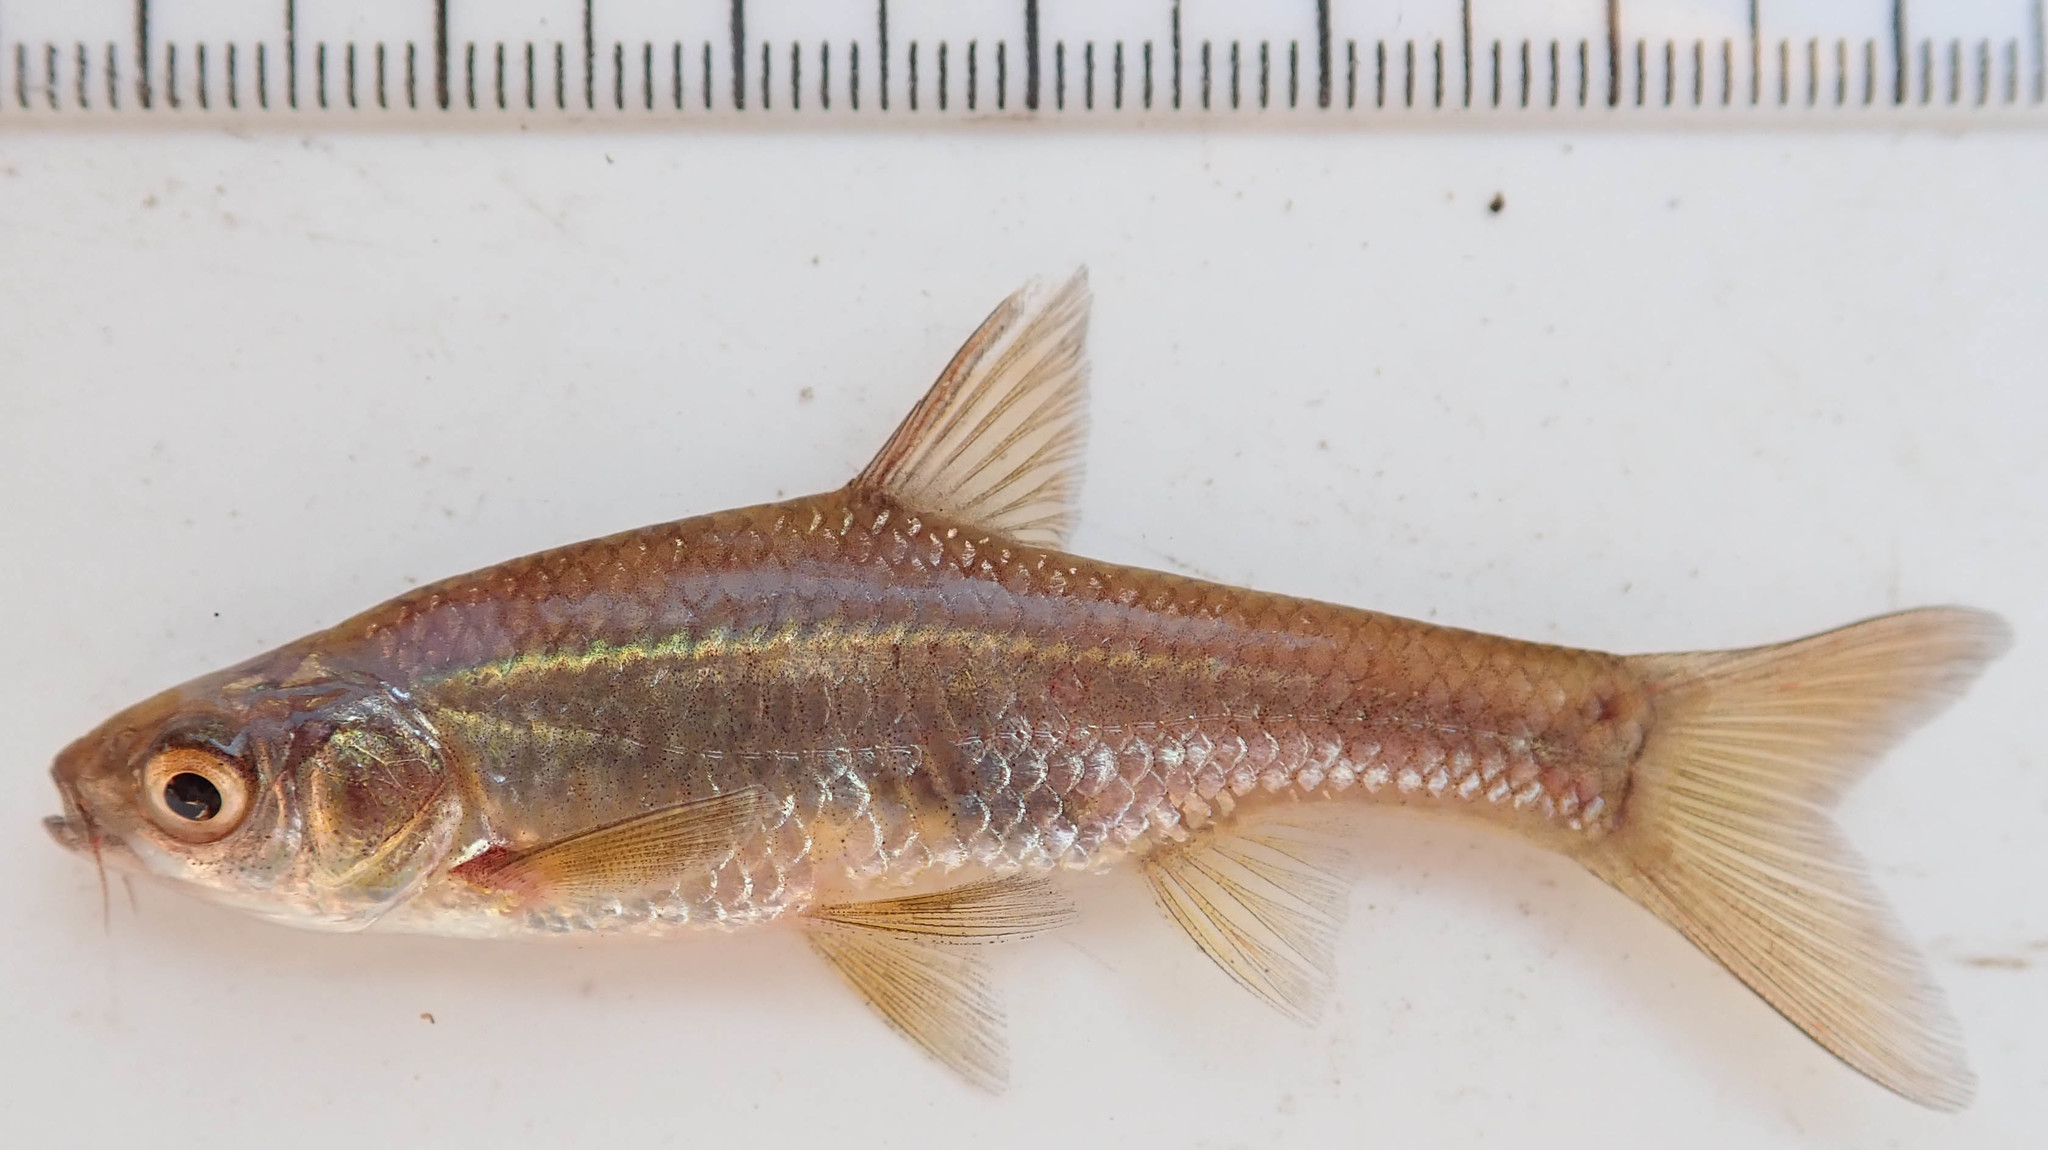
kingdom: Animalia
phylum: Chordata
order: Cypriniformes
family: Cyprinidae
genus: Enteromius
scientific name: Enteromius paludinosus
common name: Straightfin barb
